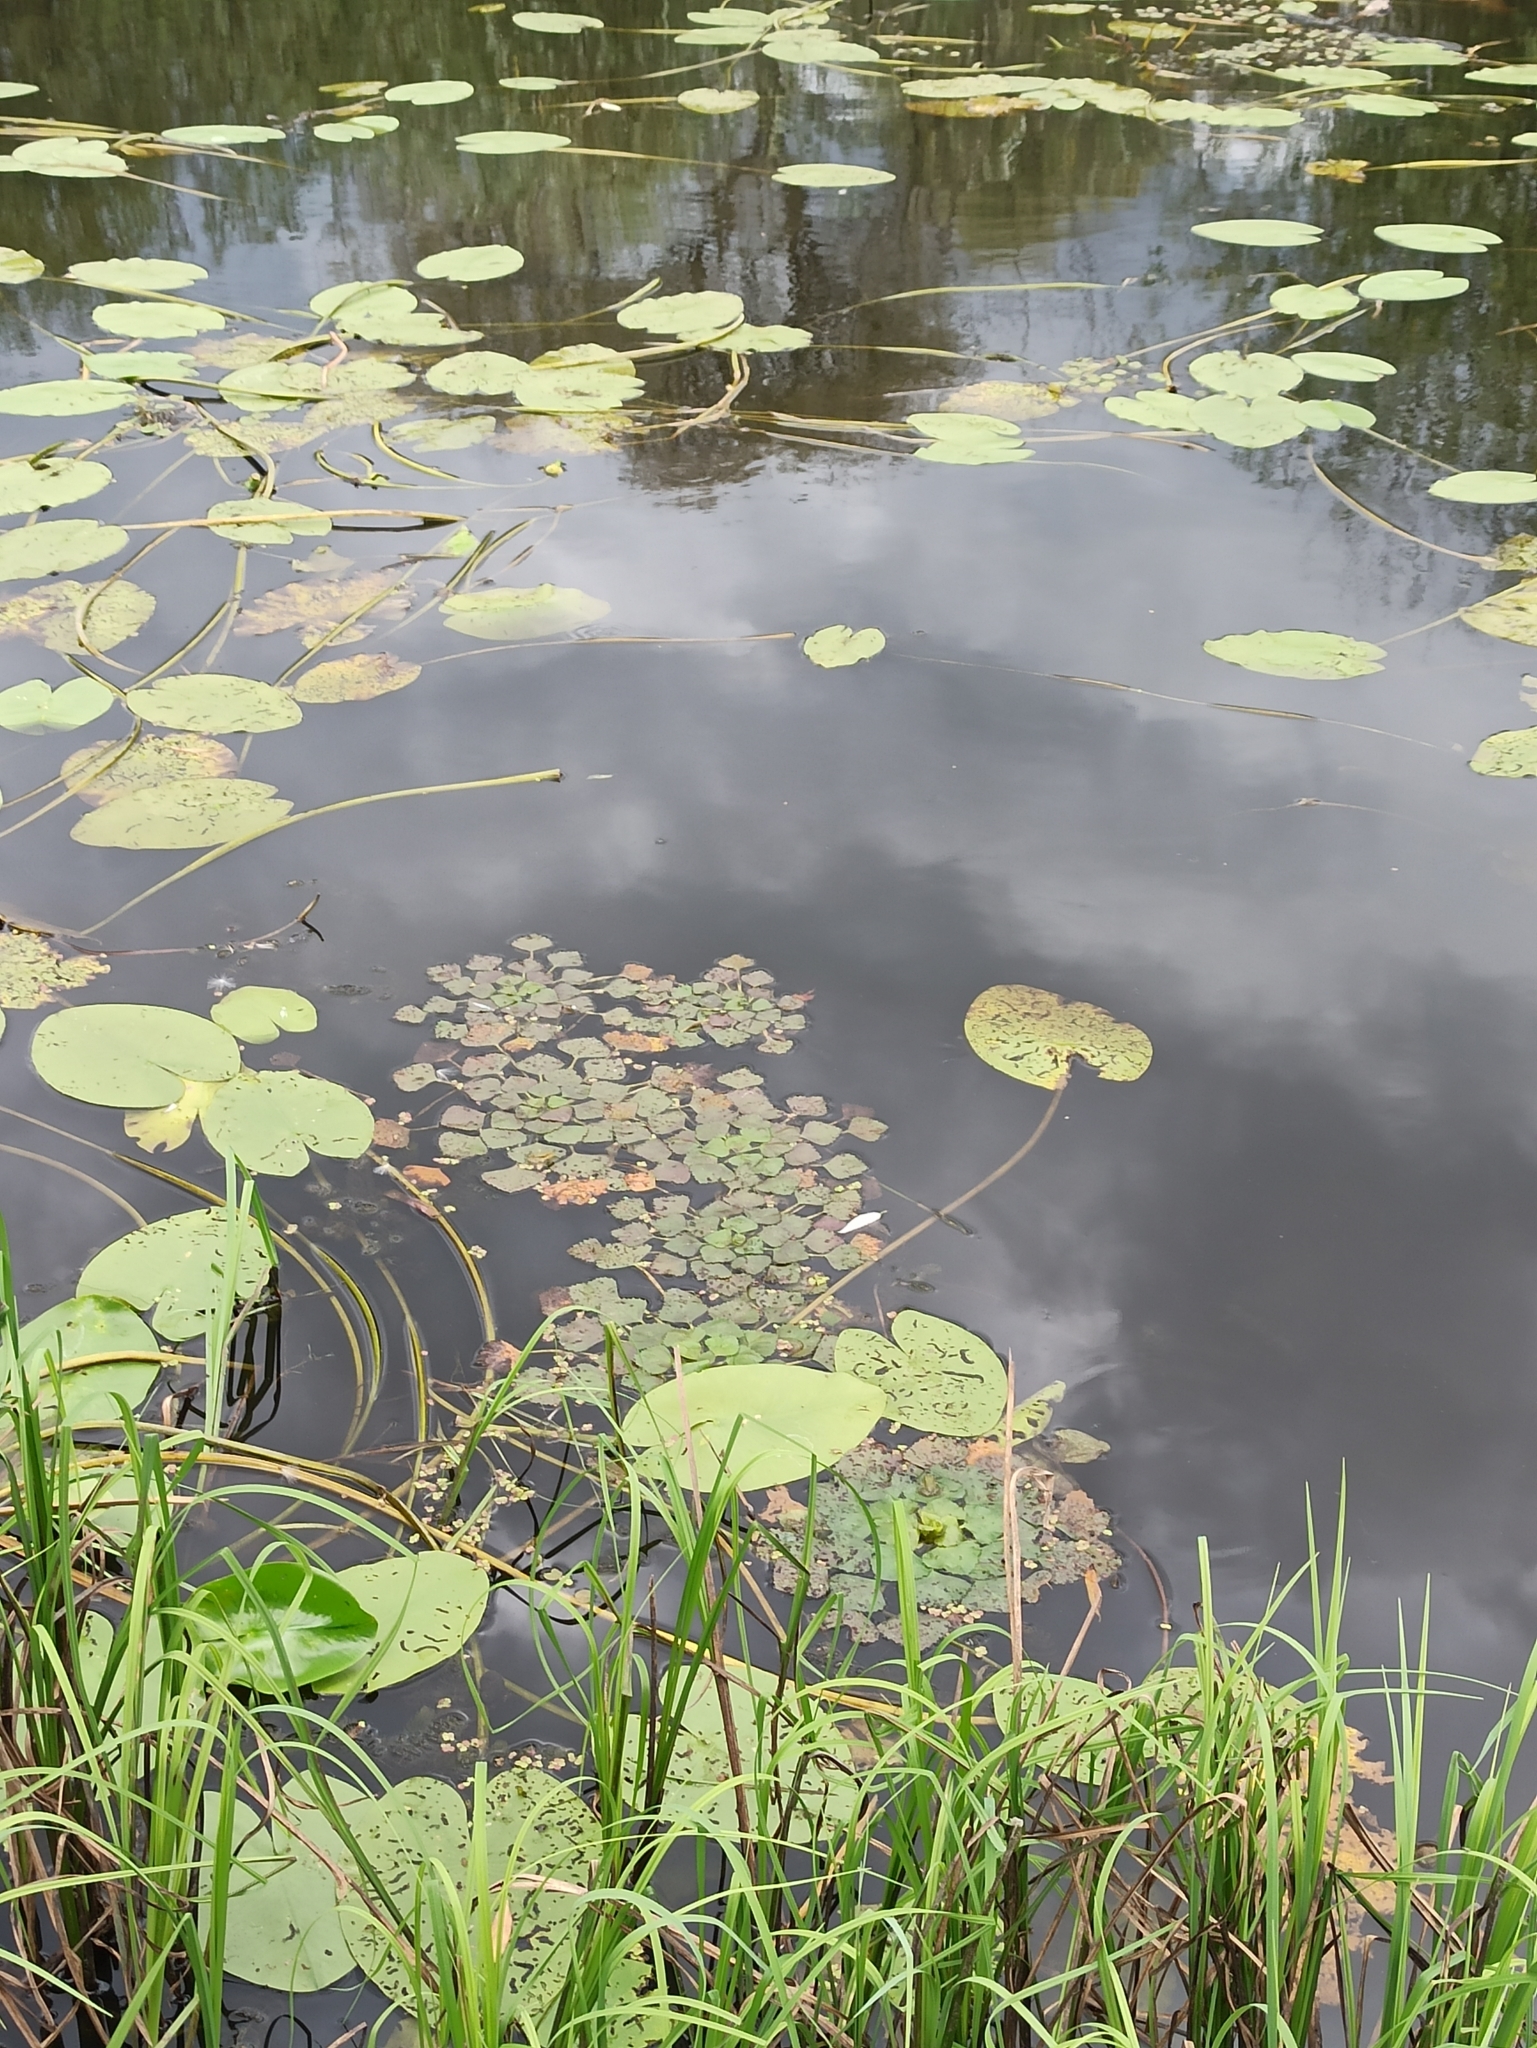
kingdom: Plantae
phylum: Tracheophyta
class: Magnoliopsida
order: Myrtales
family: Lythraceae
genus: Trapa
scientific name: Trapa natans
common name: Water chestnut
